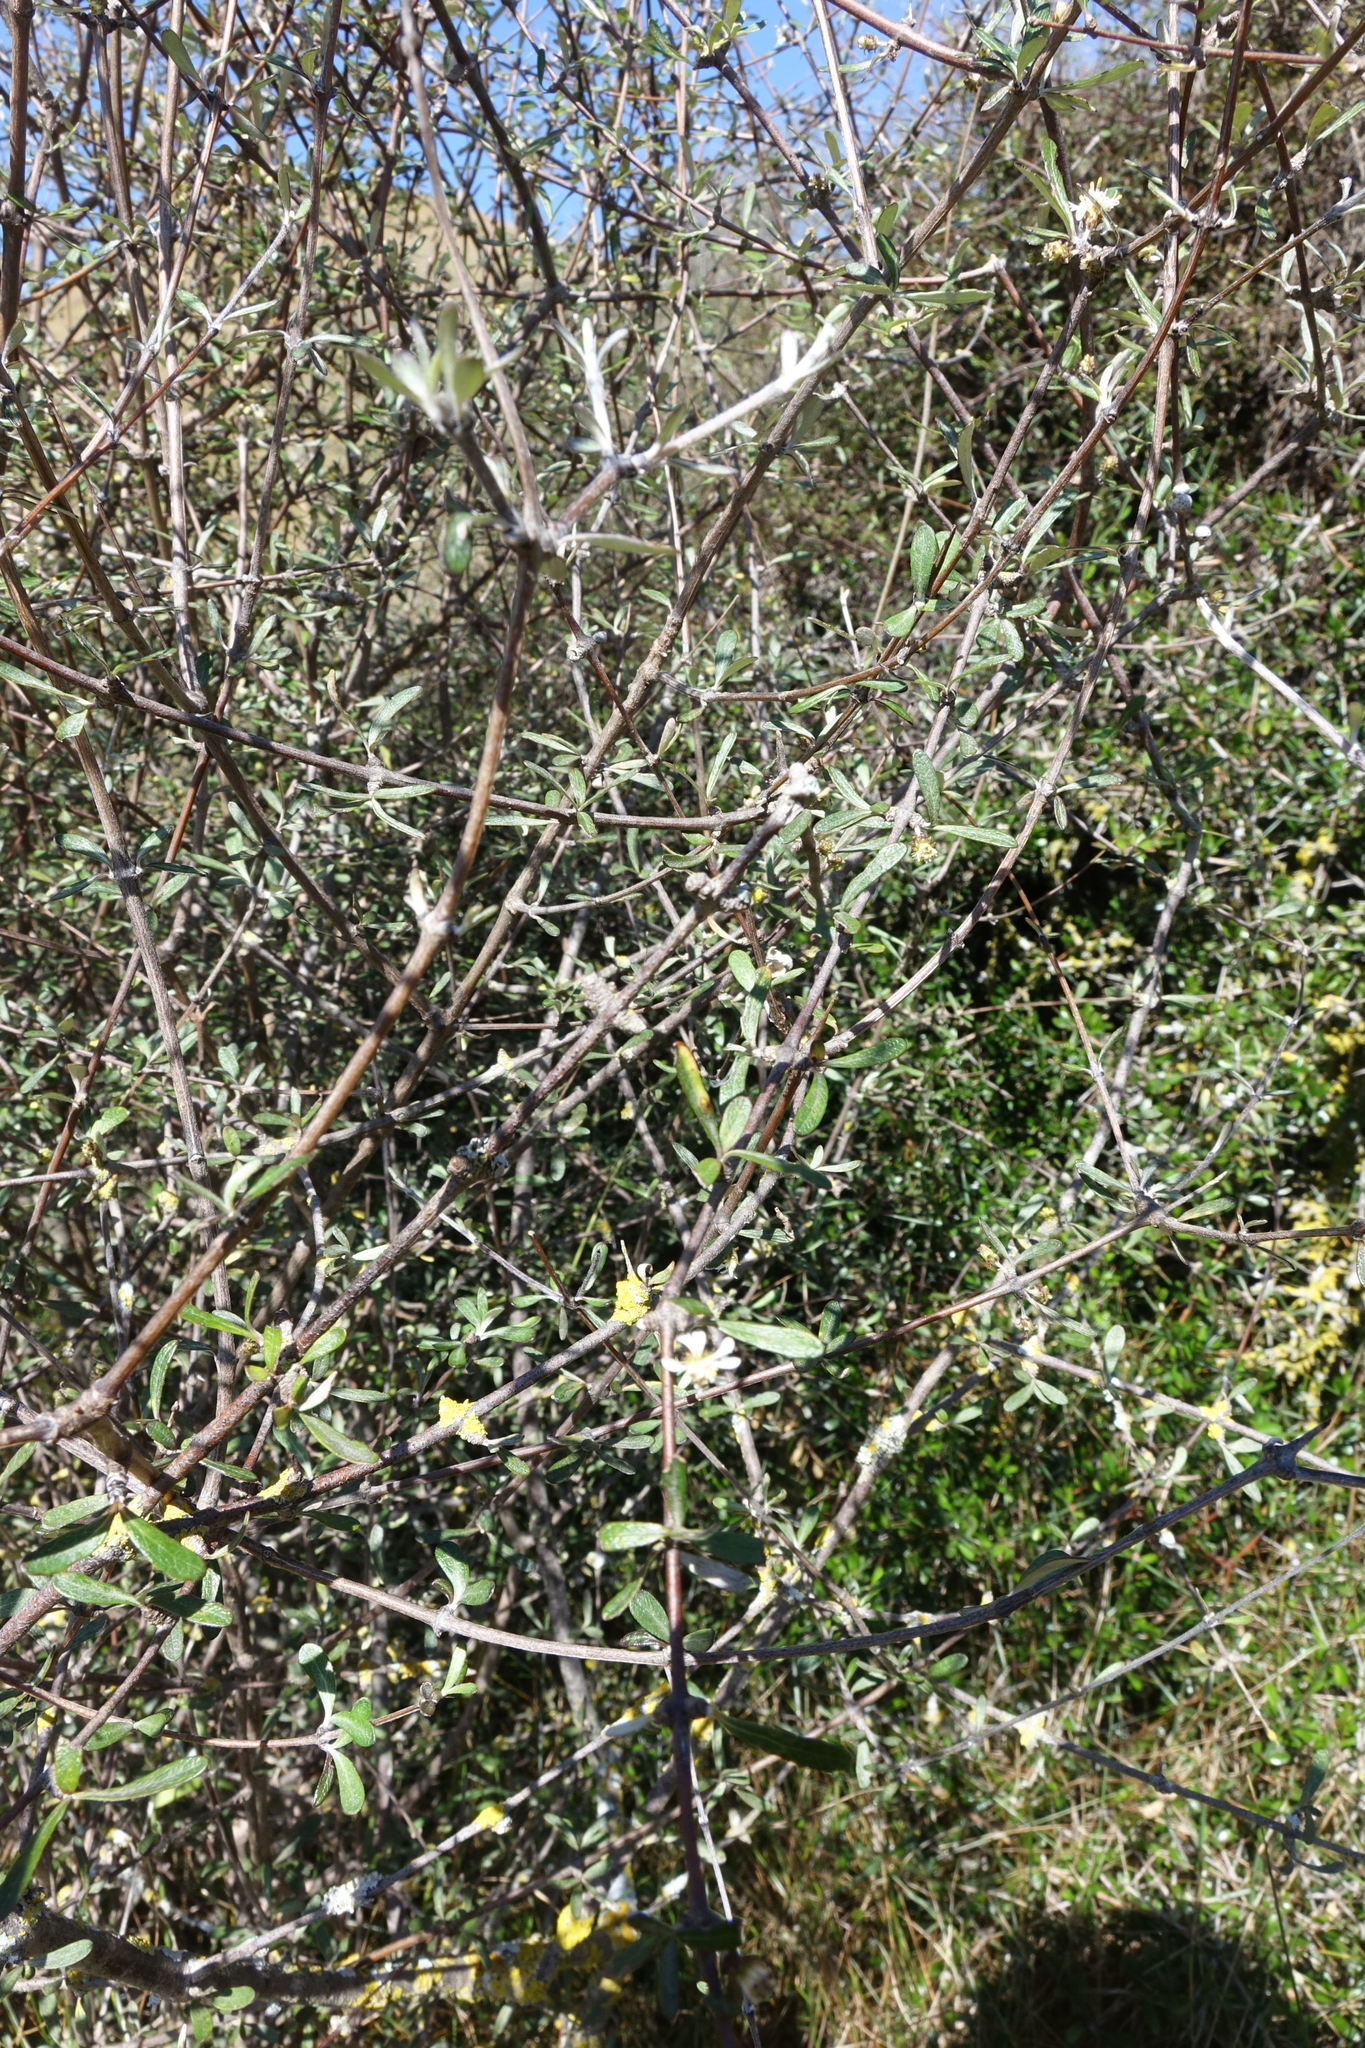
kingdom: Plantae
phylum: Tracheophyta
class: Magnoliopsida
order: Asterales
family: Asteraceae
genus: Olearia
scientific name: Olearia odorata
